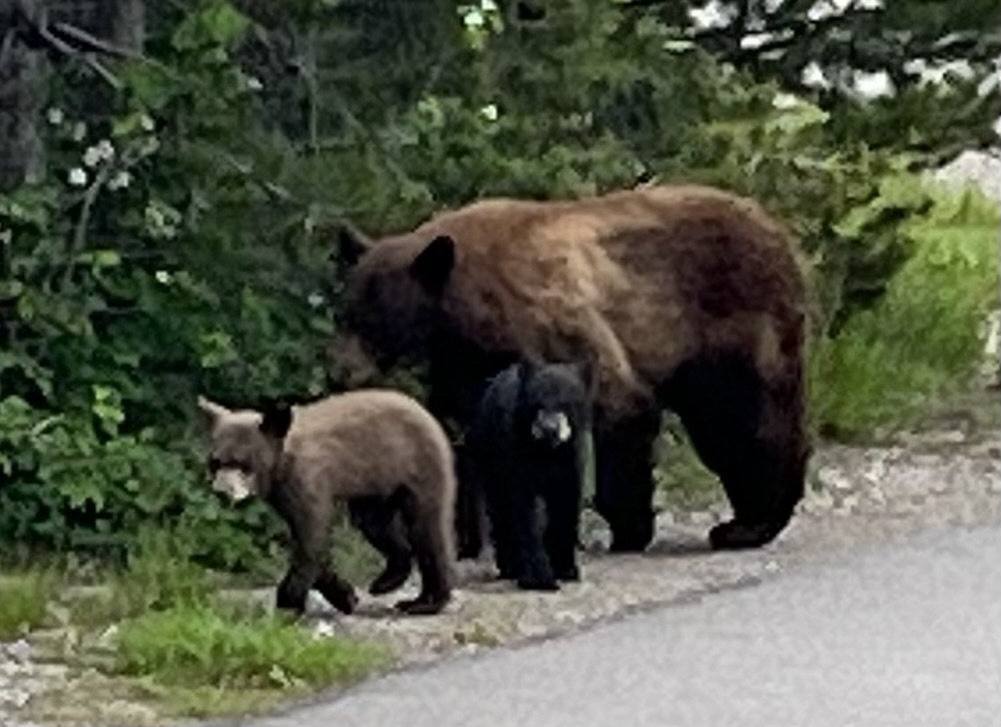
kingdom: Animalia
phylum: Chordata
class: Mammalia
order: Carnivora
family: Ursidae
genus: Ursus
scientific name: Ursus americanus
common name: American black bear
